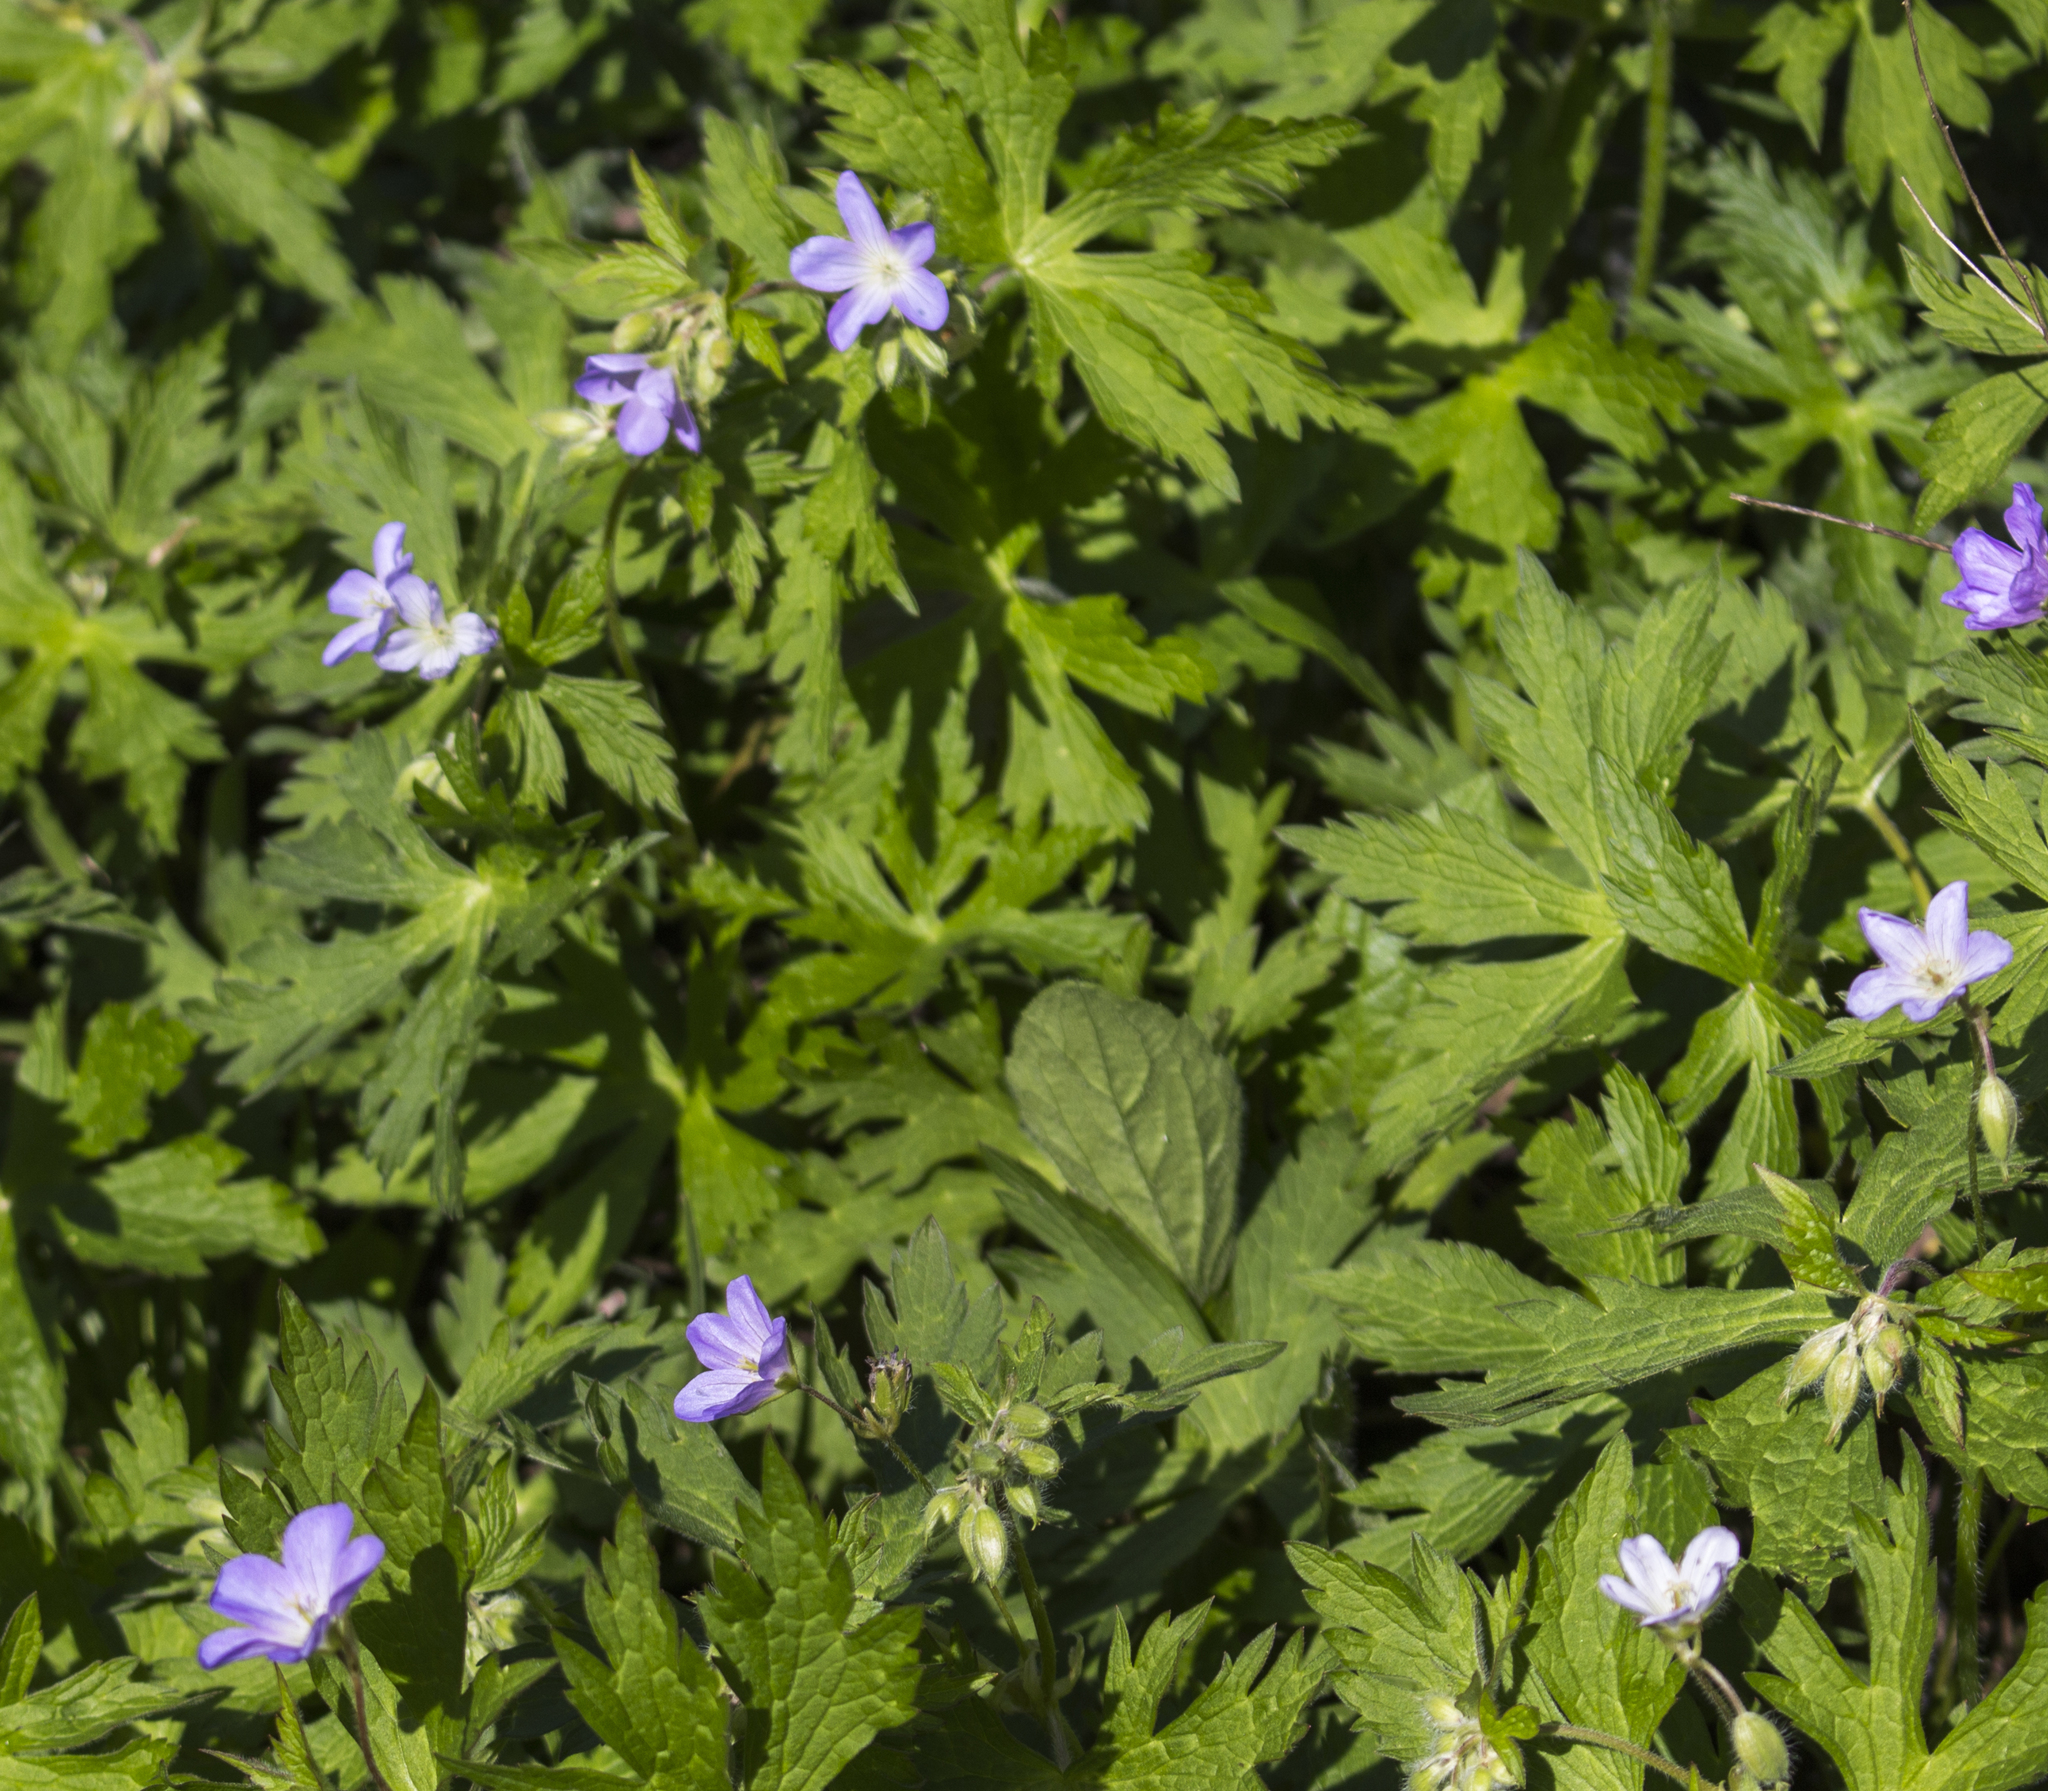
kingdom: Plantae
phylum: Tracheophyta
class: Magnoliopsida
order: Geraniales
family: Geraniaceae
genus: Geranium
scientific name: Geranium maculatum
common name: Spotted geranium
